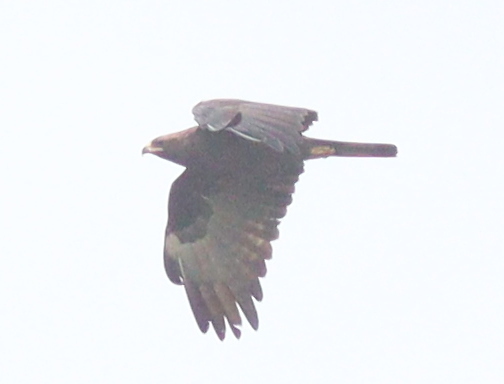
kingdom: Animalia
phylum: Chordata
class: Aves
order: Accipitriformes
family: Accipitridae
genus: Hieraaetus
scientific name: Hieraaetus wahlbergi
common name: Wahlberg's eagle
